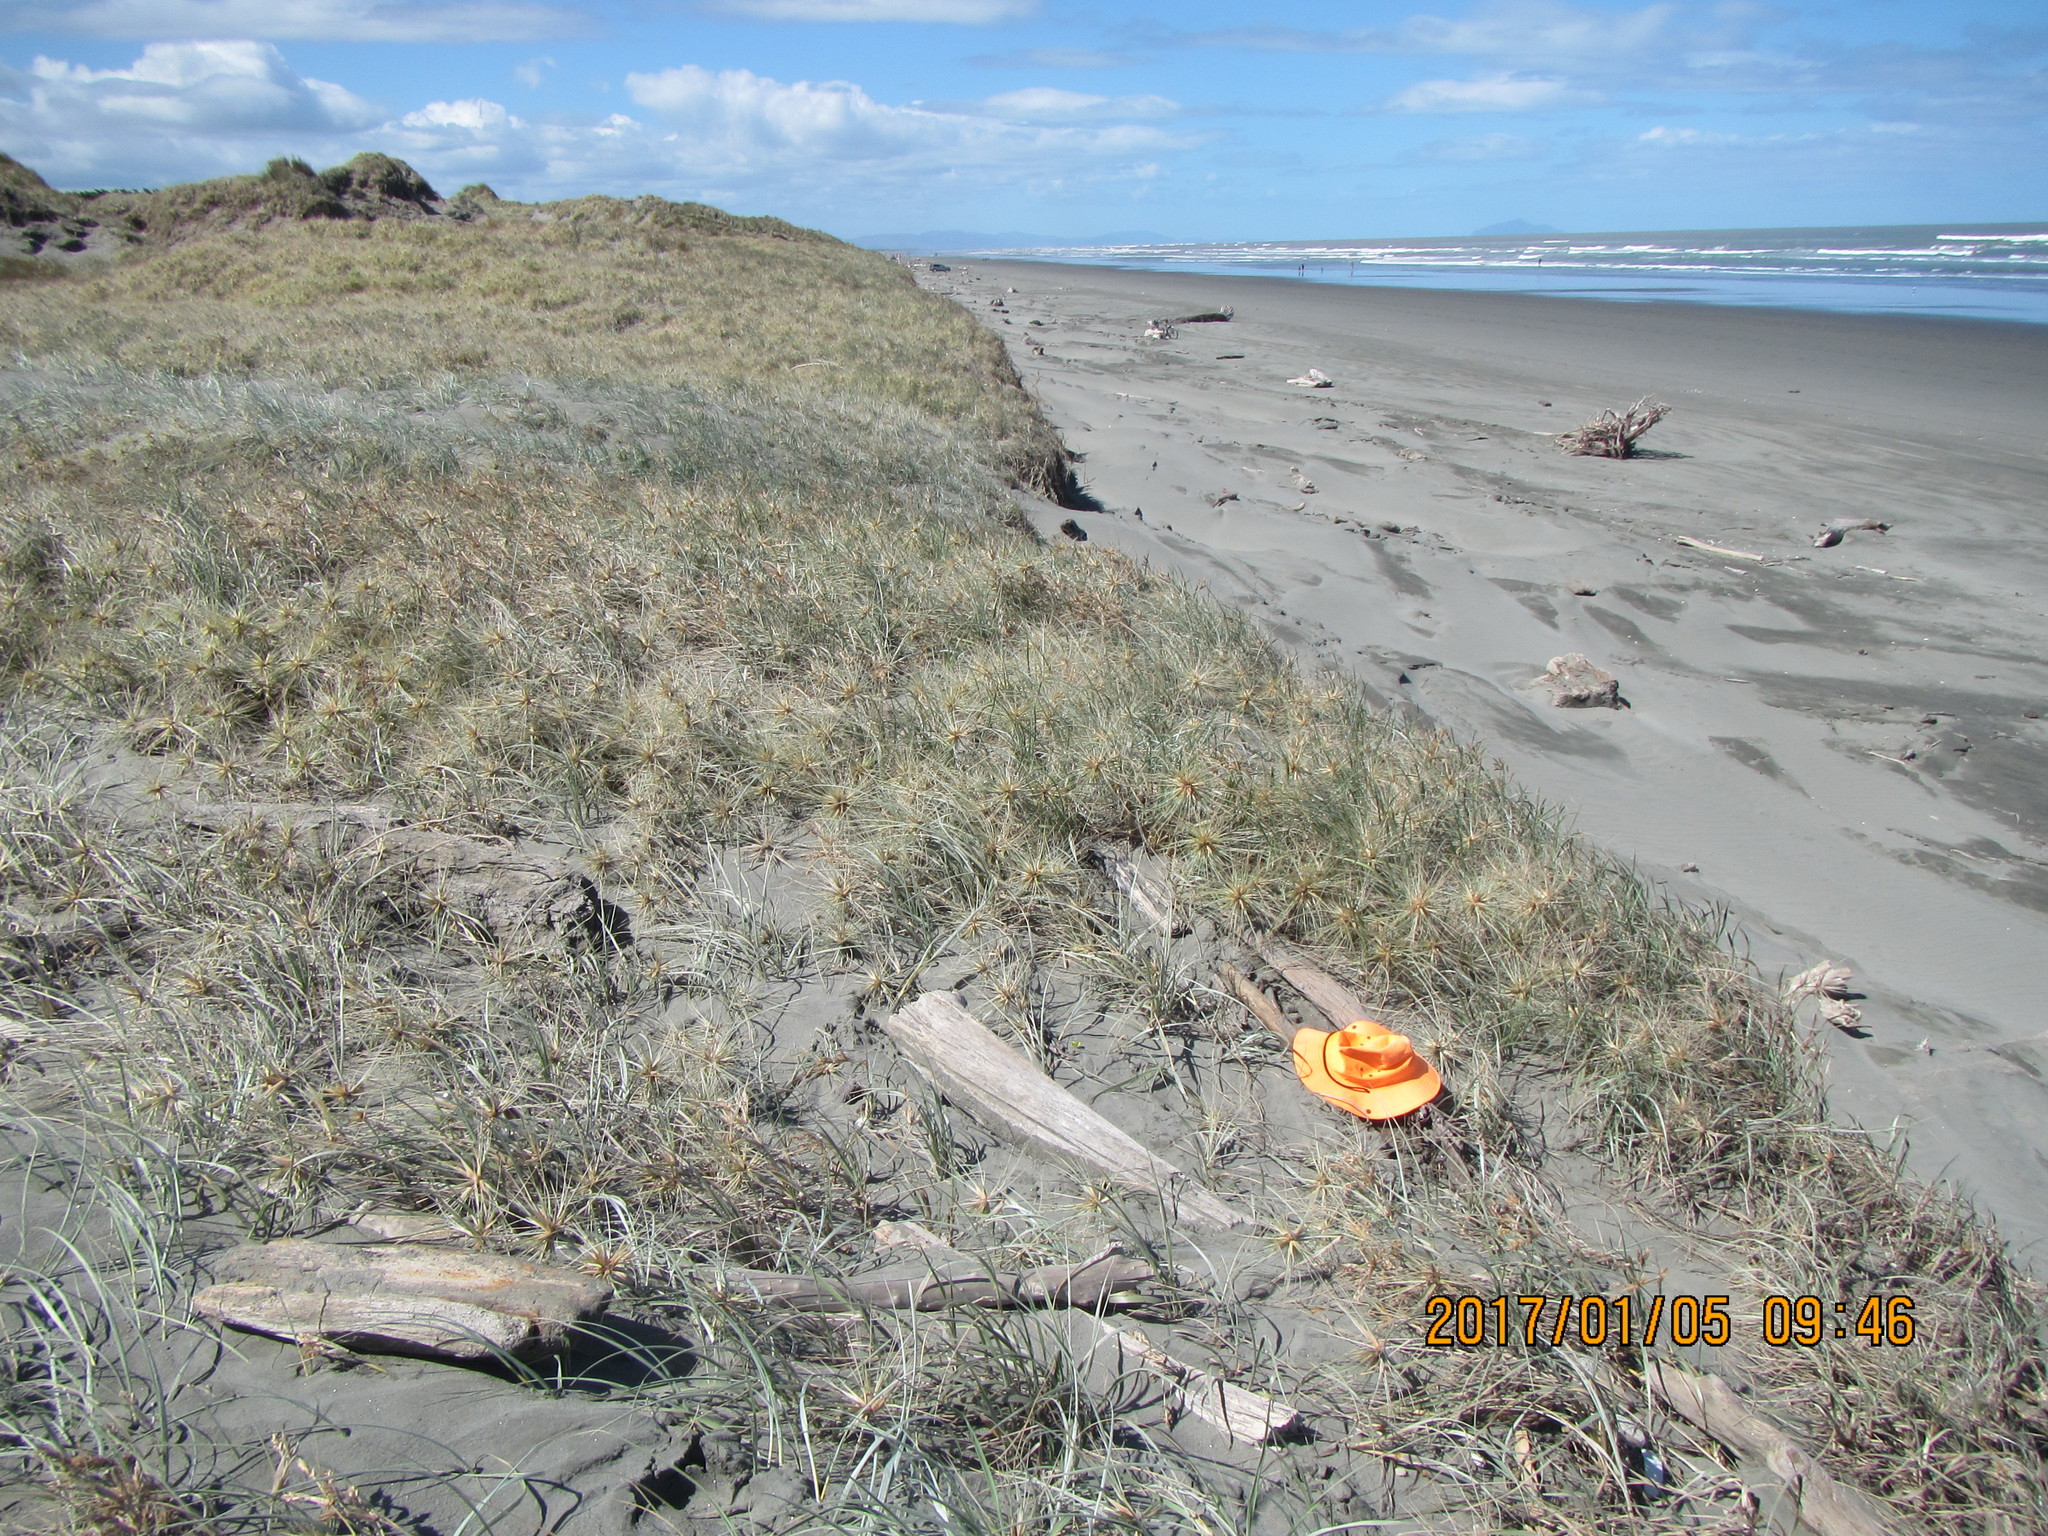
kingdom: Animalia
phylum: Arthropoda
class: Arachnida
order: Araneae
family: Linyphiidae
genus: Ostearius
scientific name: Ostearius melanopygius
